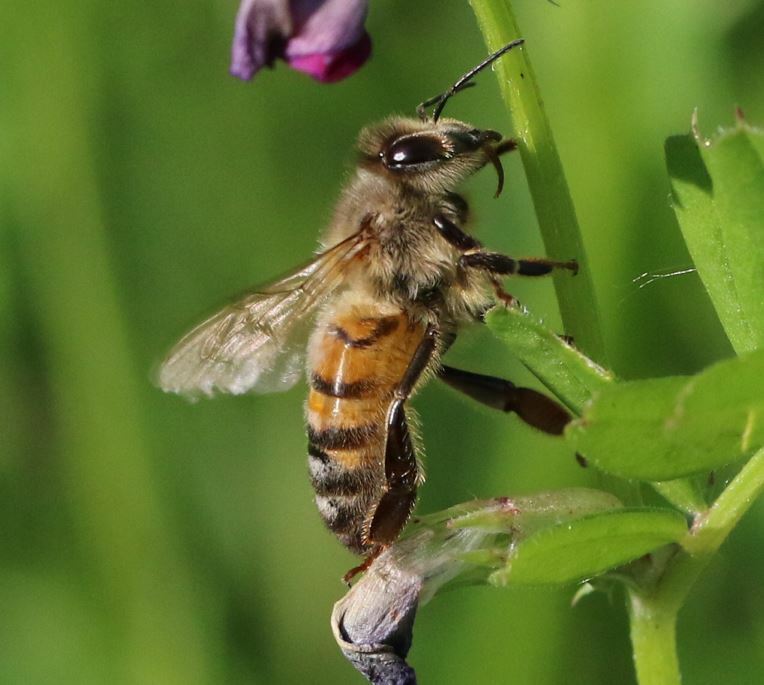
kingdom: Animalia
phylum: Arthropoda
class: Insecta
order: Hymenoptera
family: Apidae
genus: Apis
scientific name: Apis mellifera
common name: Honey bee
